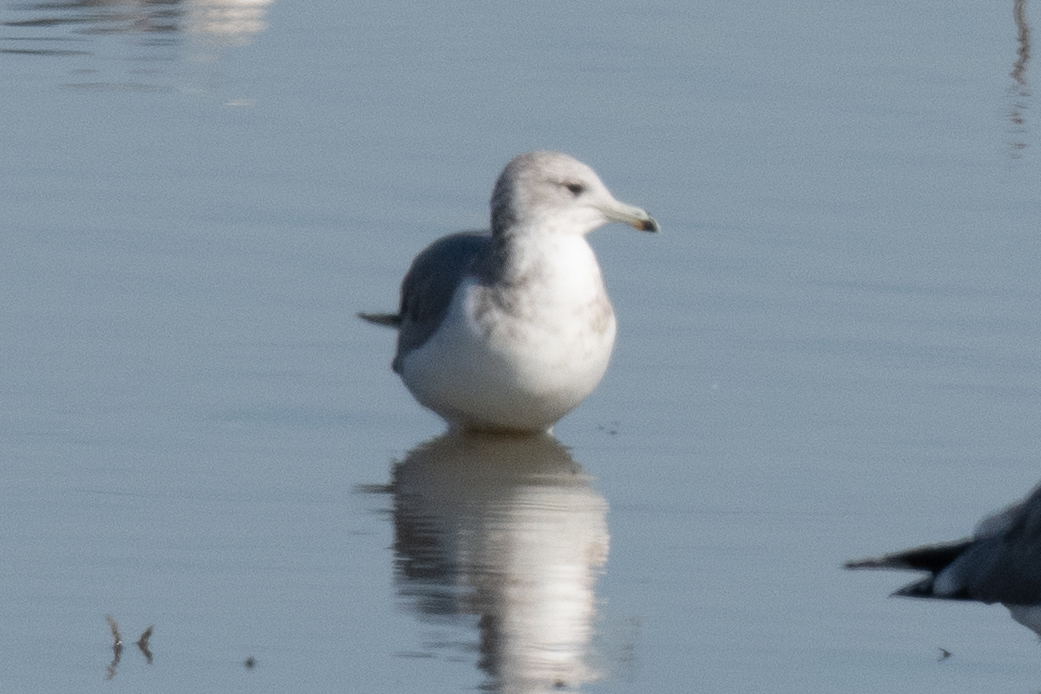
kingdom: Animalia
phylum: Chordata
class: Aves
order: Charadriiformes
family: Laridae
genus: Larus
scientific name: Larus californicus
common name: California gull
